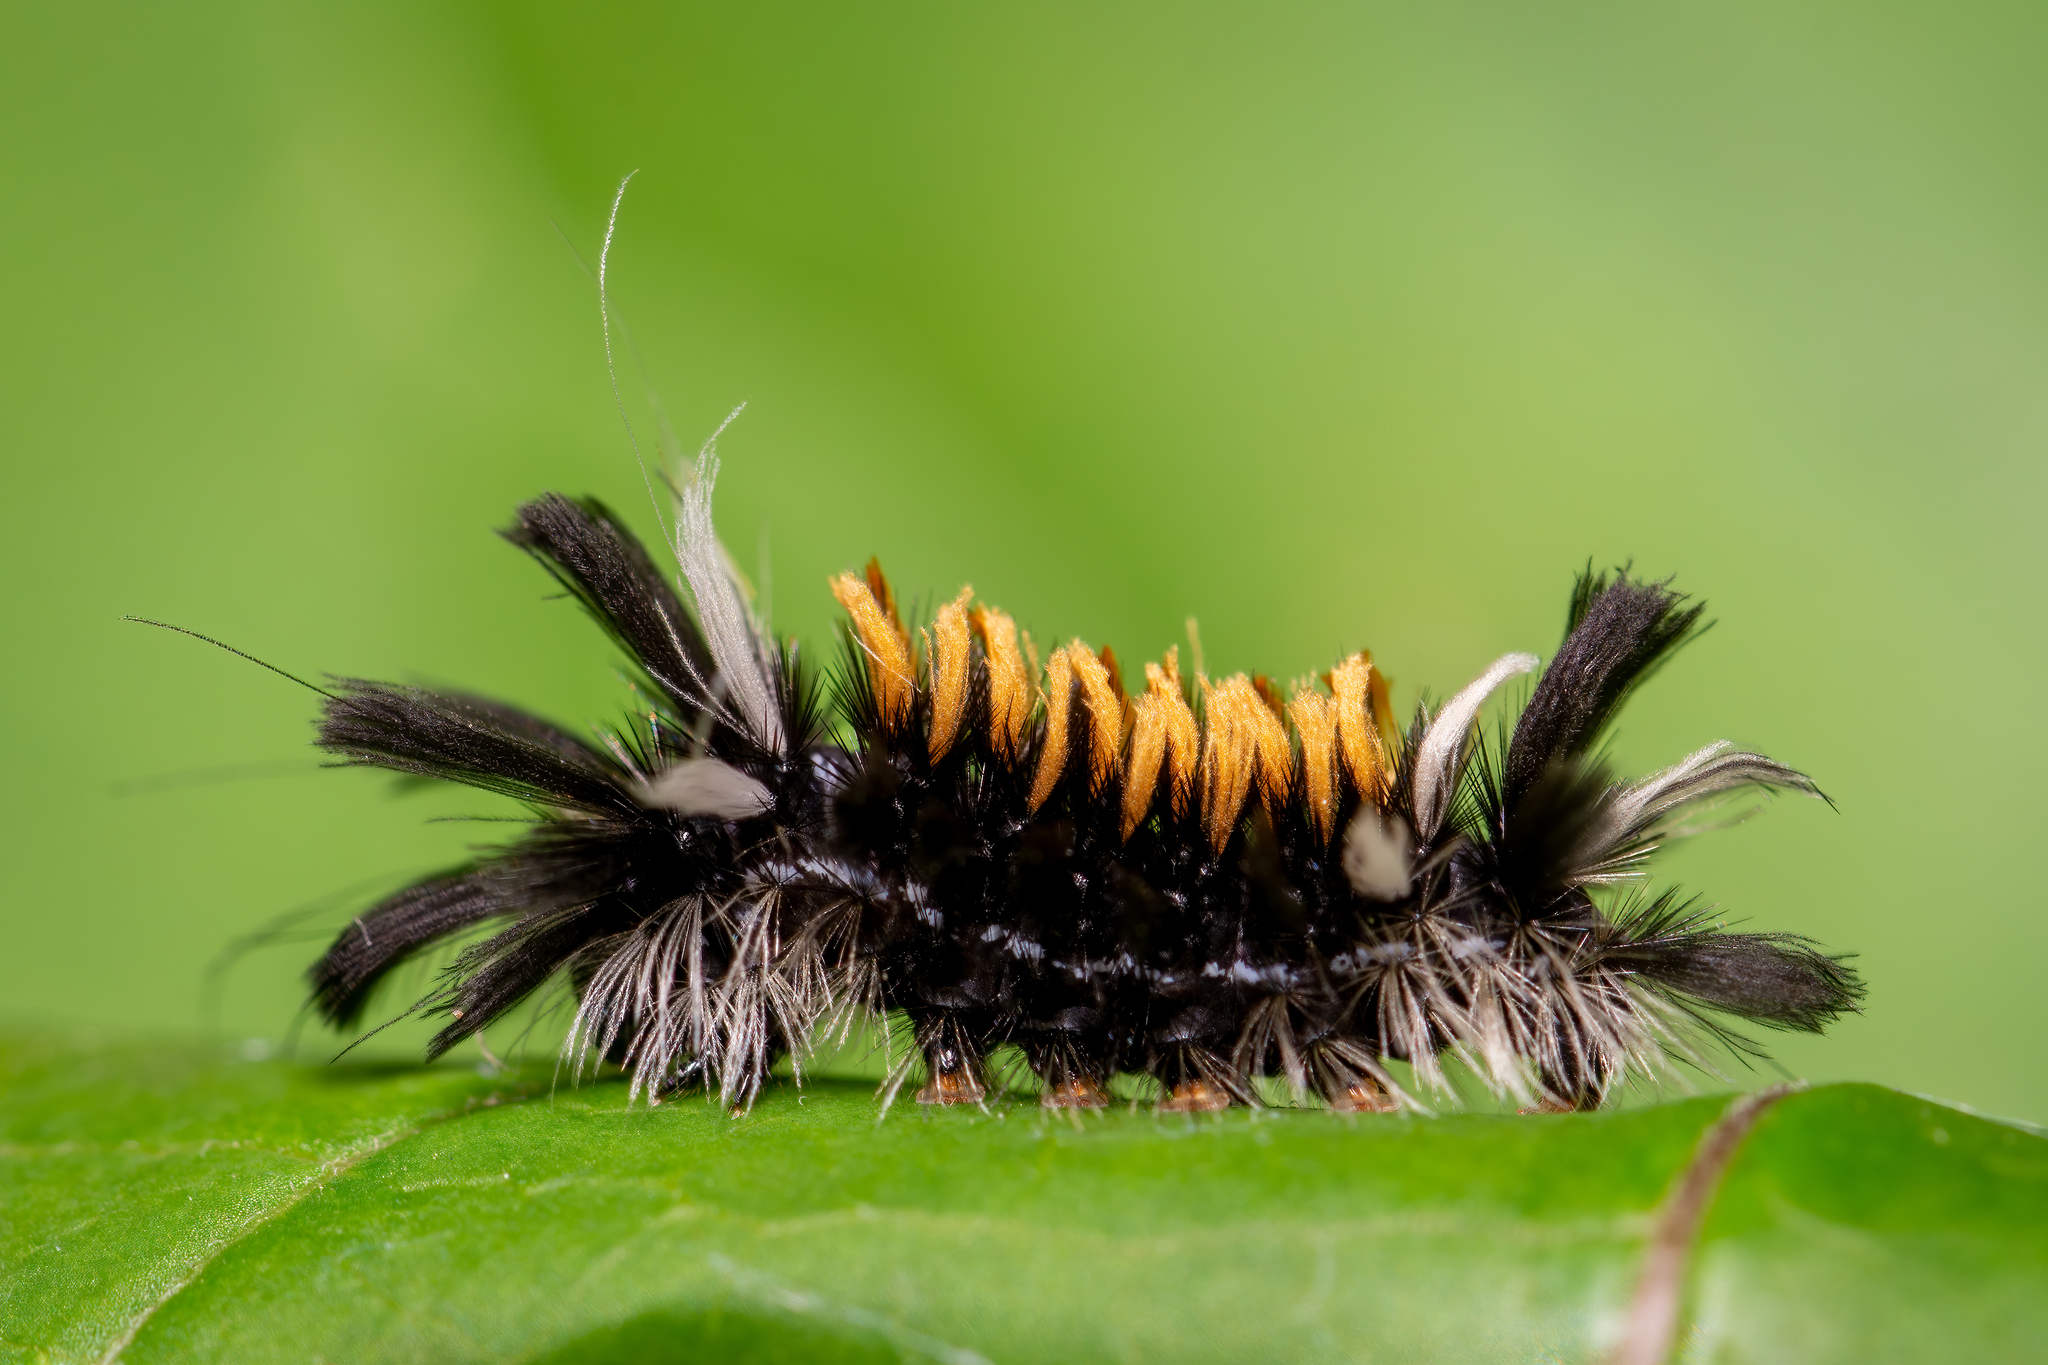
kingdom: Animalia
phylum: Arthropoda
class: Insecta
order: Lepidoptera
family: Erebidae
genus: Euchaetes
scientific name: Euchaetes egle
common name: Milkweed tussock moth
